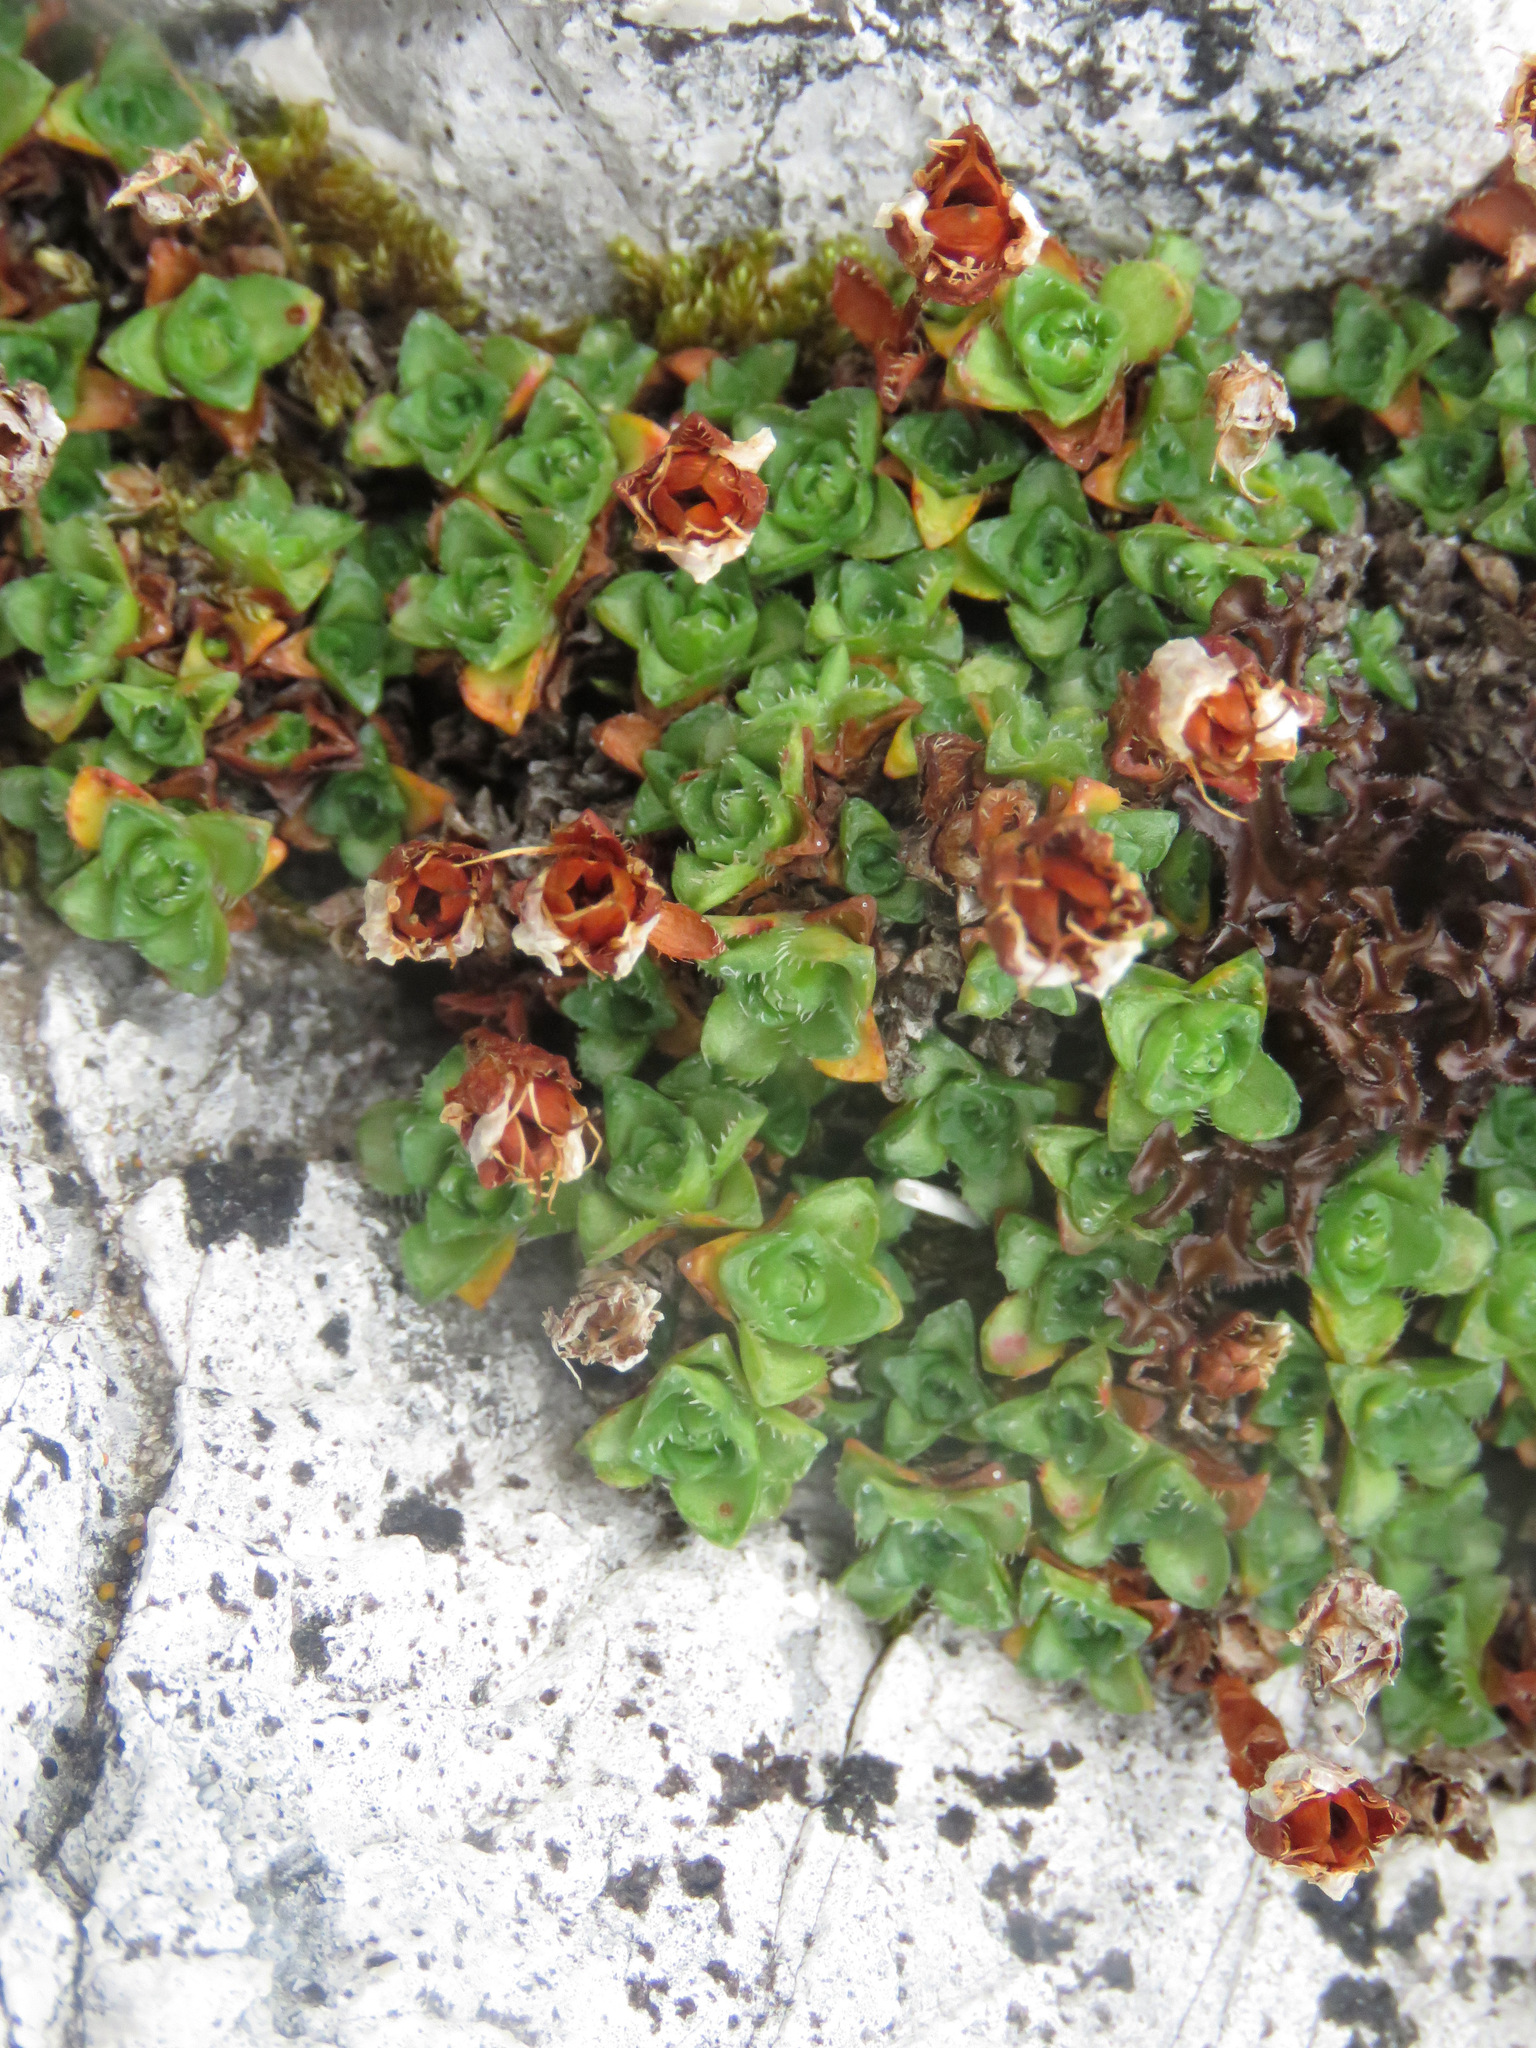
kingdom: Plantae
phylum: Tracheophyta
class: Magnoliopsida
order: Saxifragales
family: Saxifragaceae
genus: Saxifraga
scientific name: Saxifraga oppositifolia
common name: Purple saxifrage
